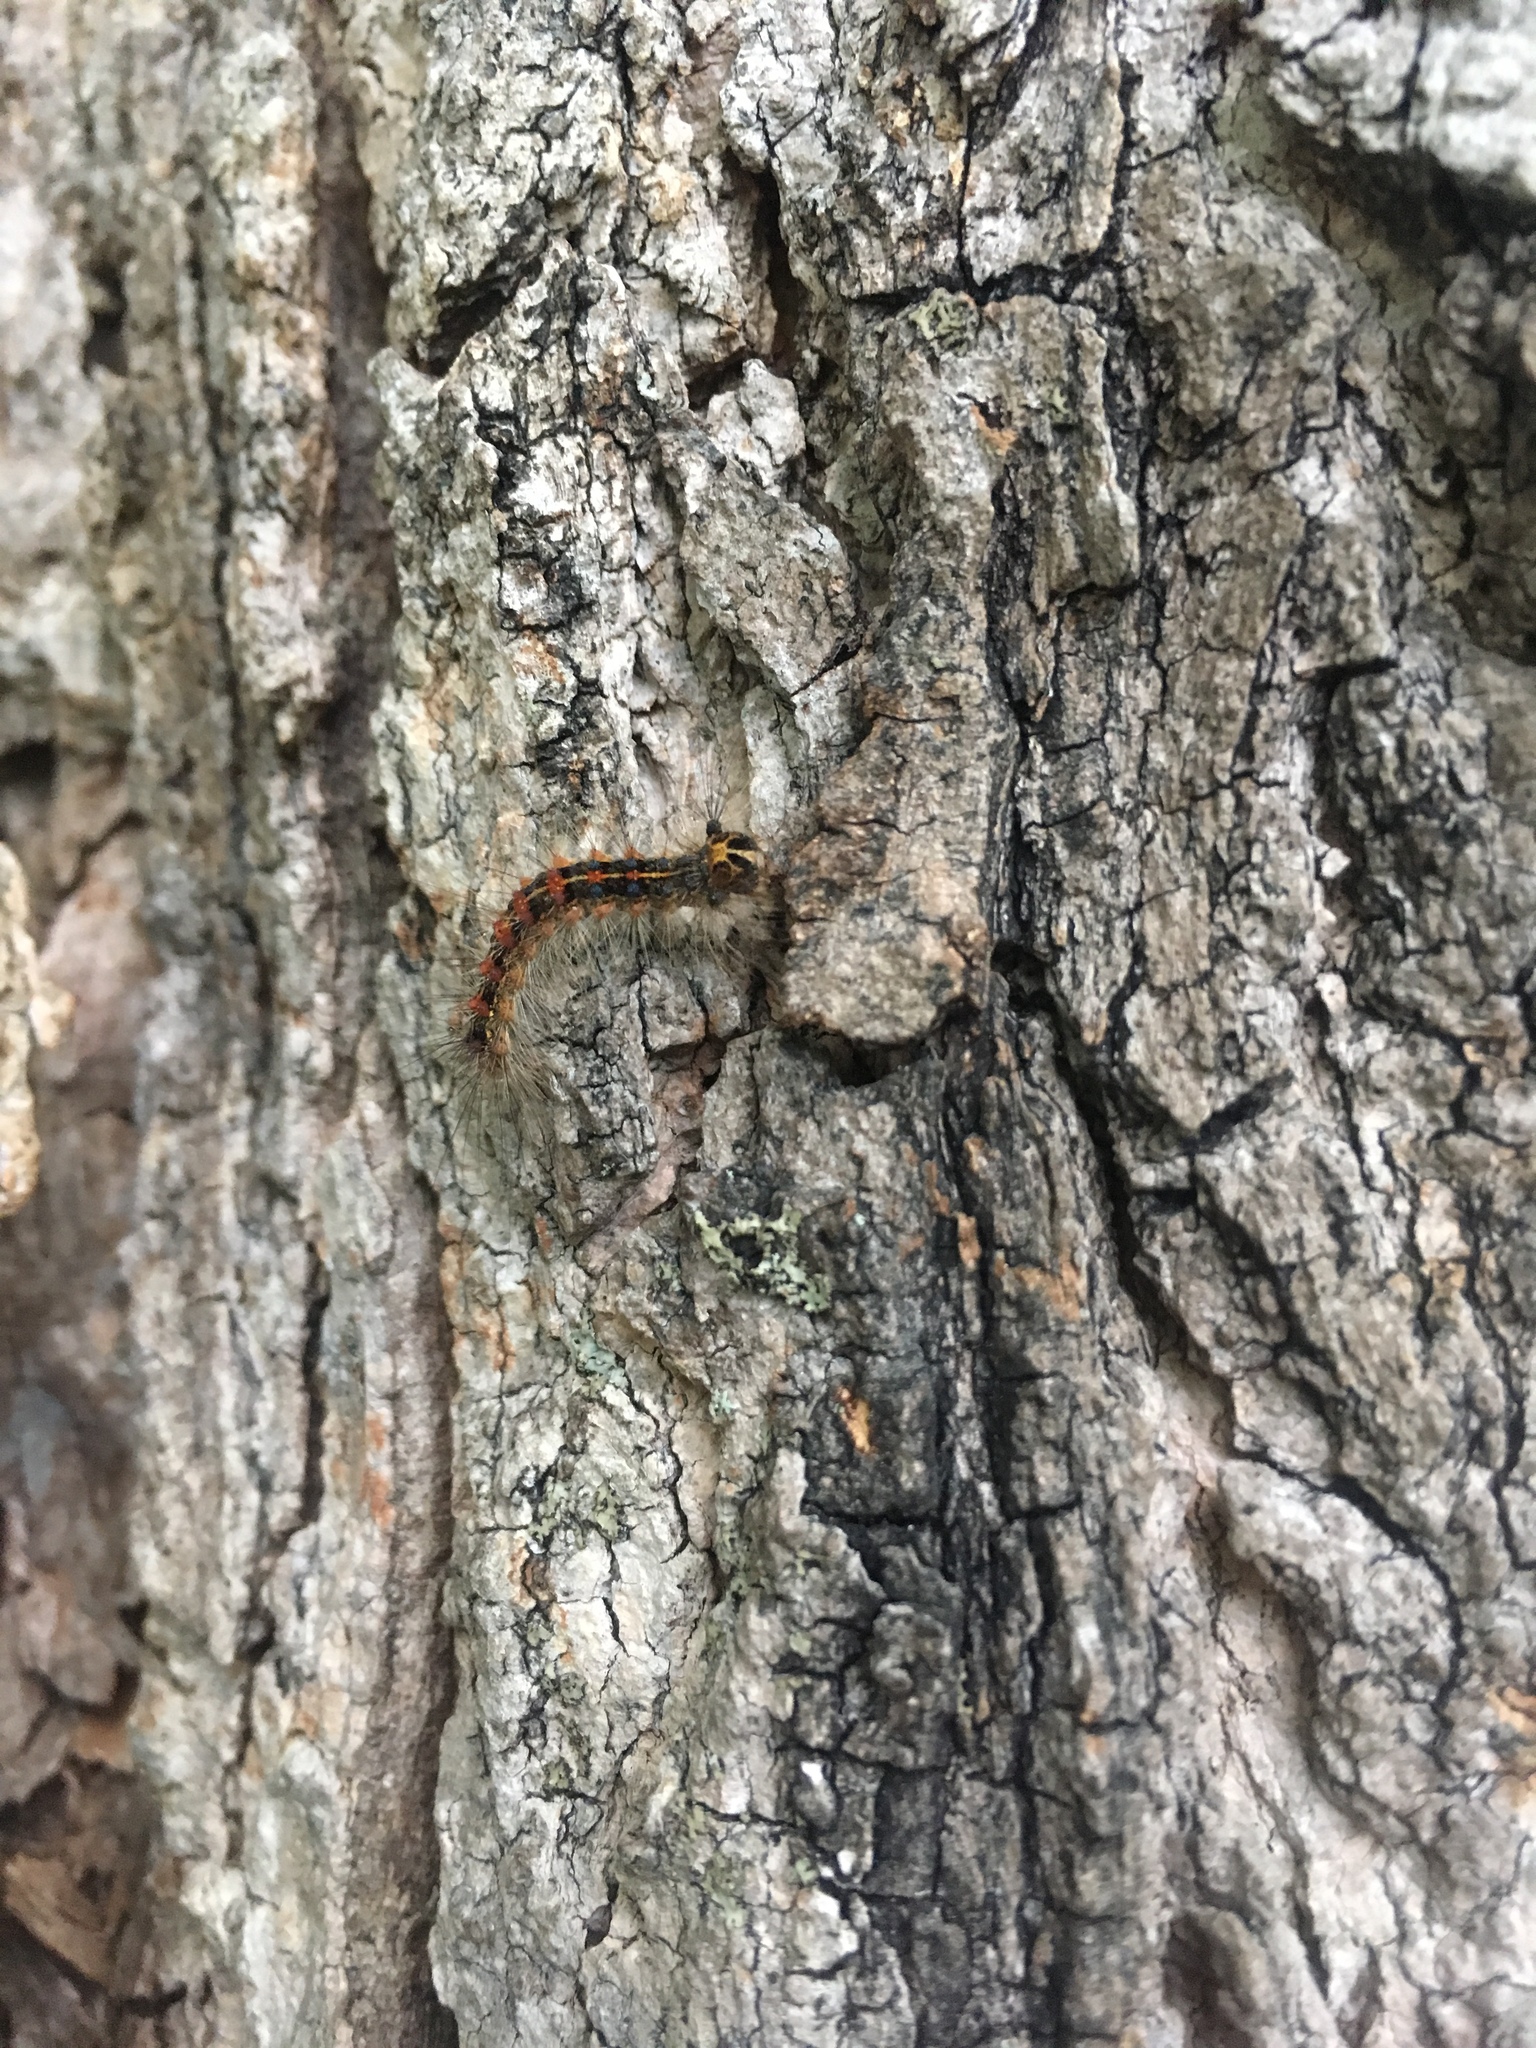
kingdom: Animalia
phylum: Arthropoda
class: Insecta
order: Lepidoptera
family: Erebidae
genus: Lymantria
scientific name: Lymantria dispar
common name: Gypsy moth
